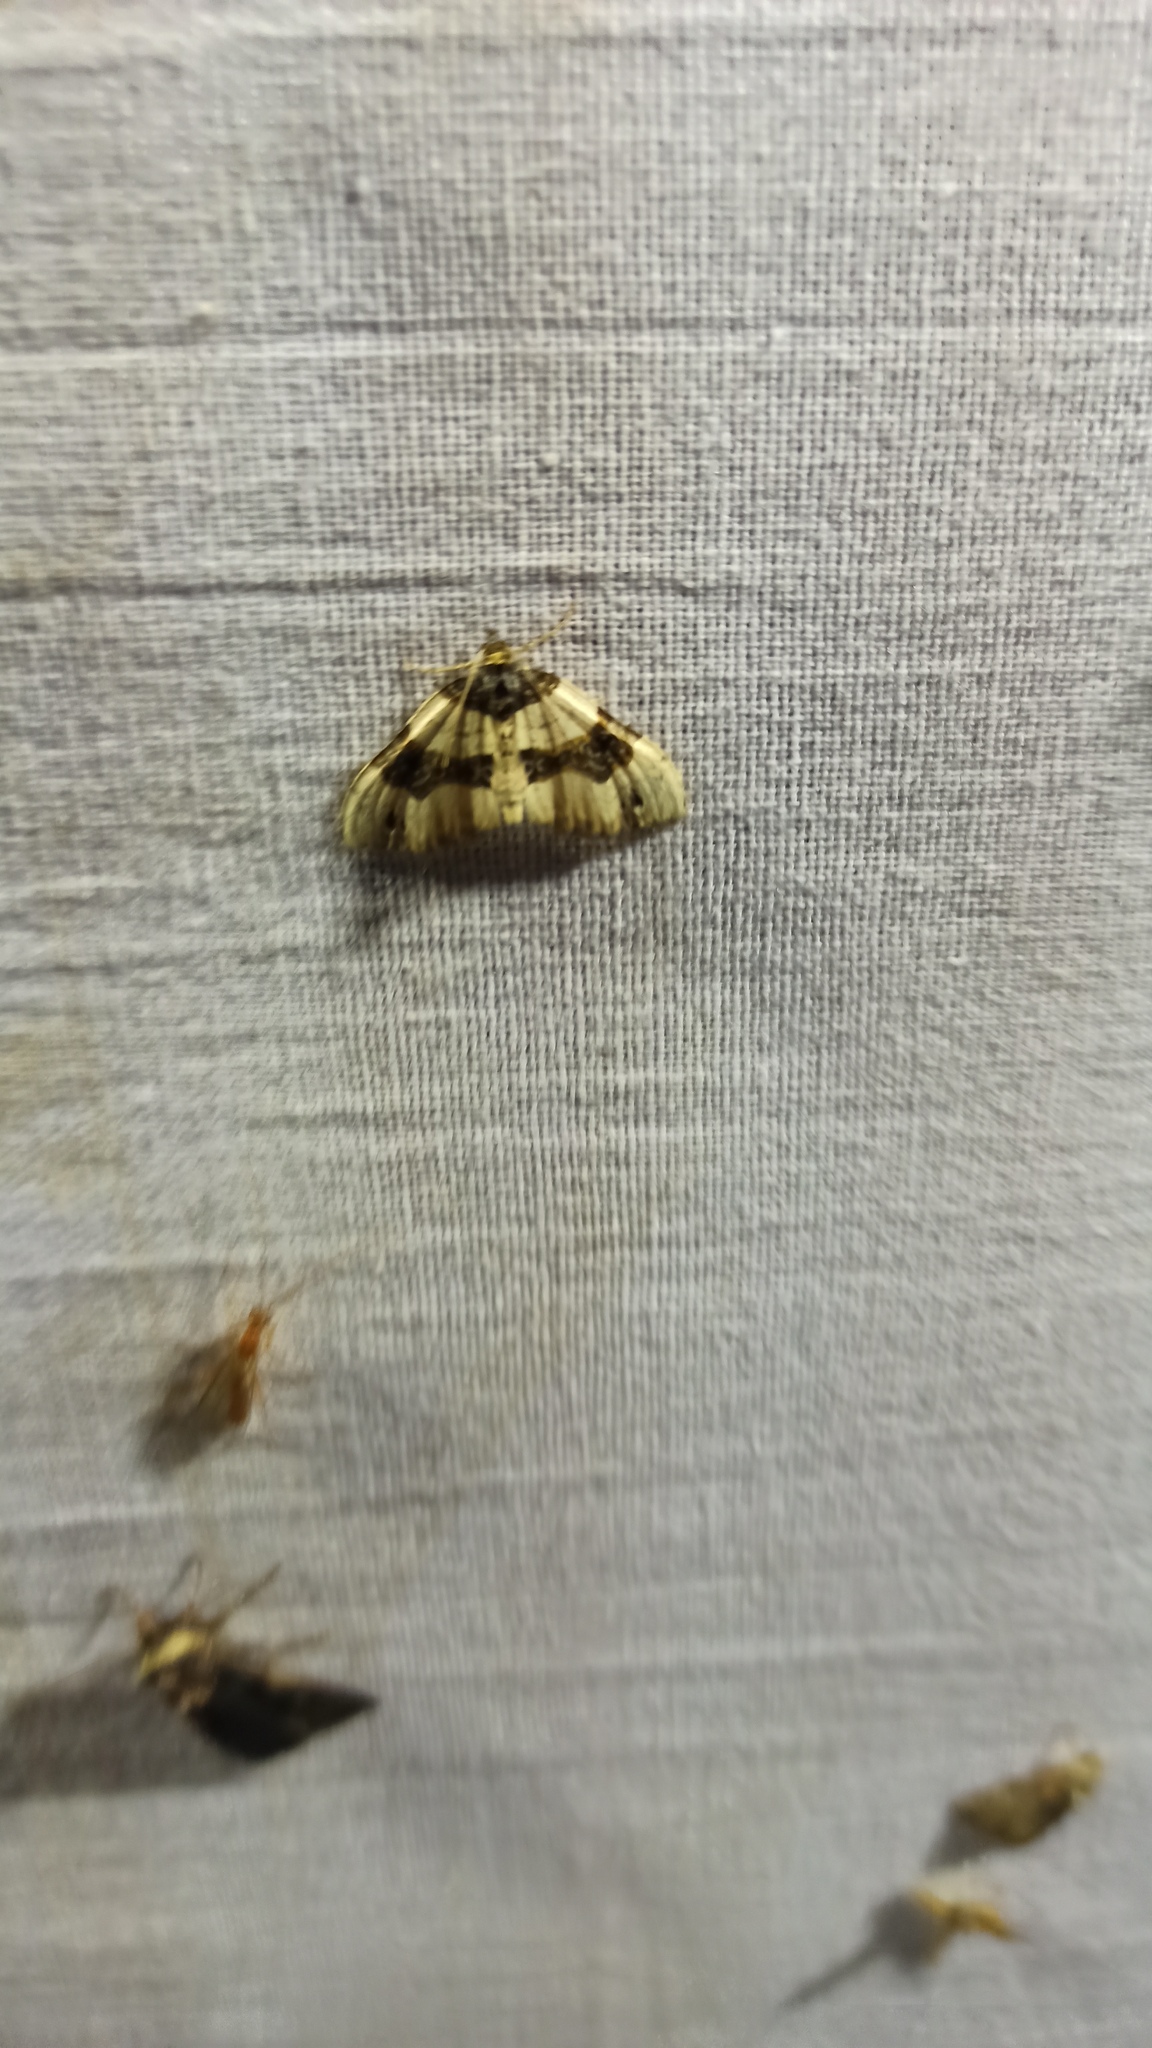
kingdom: Animalia
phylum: Arthropoda
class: Insecta
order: Lepidoptera
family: Geometridae
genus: Cosmorhoe
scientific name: Cosmorhoe ocellata
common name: Purple bar
